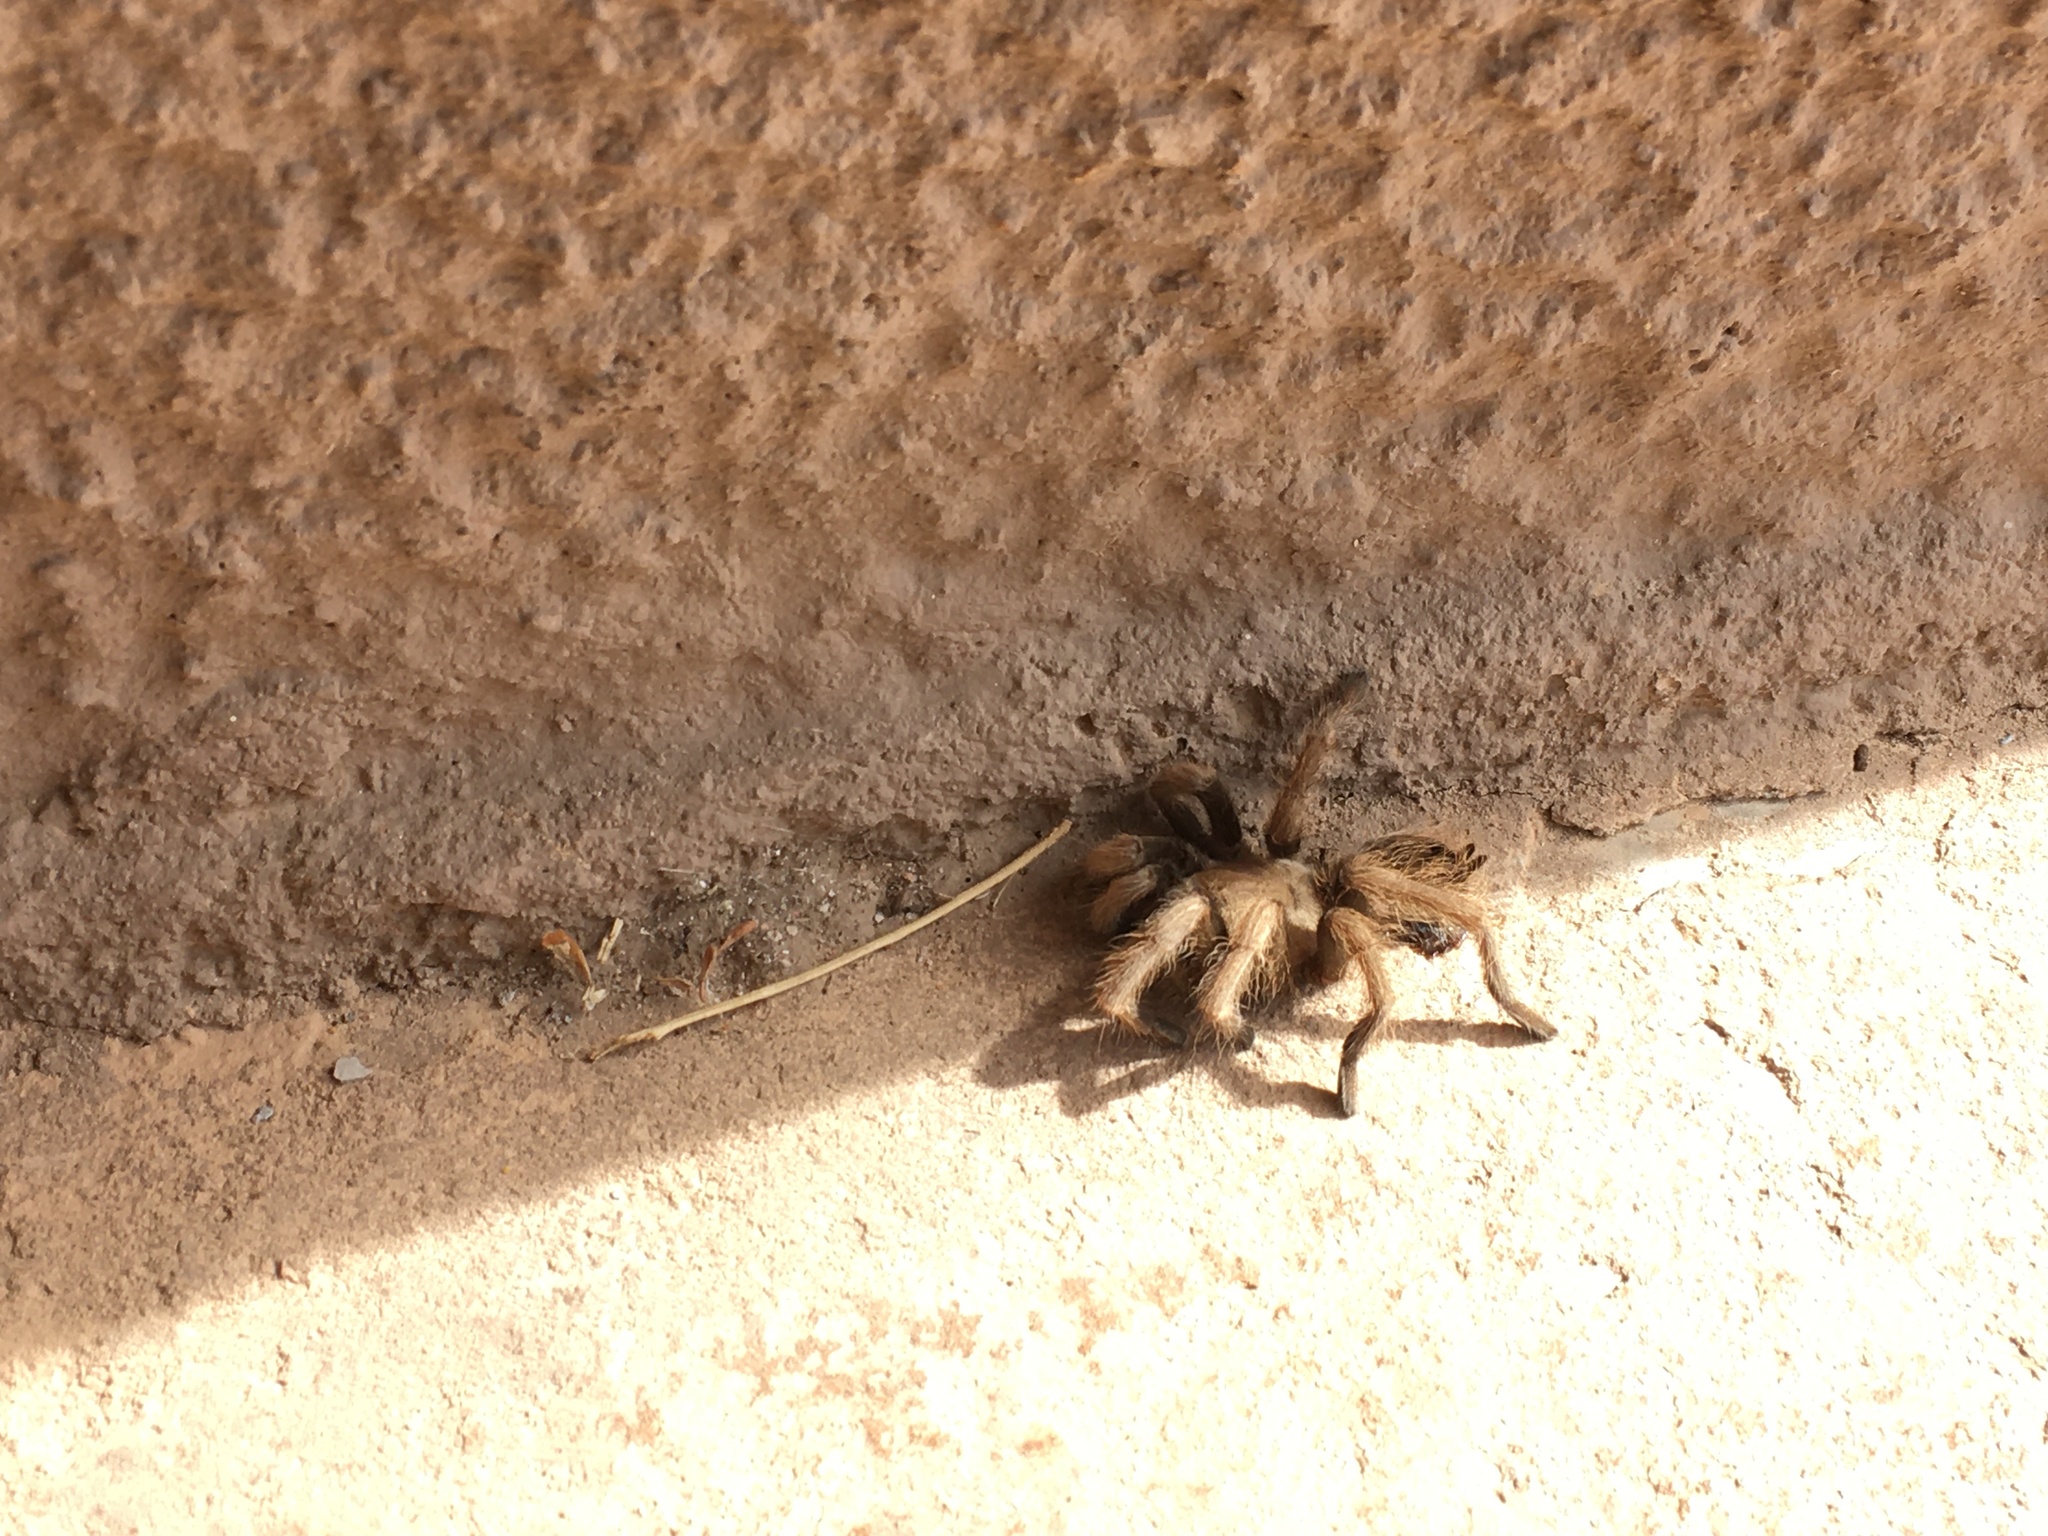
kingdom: Animalia
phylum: Arthropoda
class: Arachnida
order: Araneae
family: Theraphosidae
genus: Aphonopelma
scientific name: Aphonopelma chalcodes
